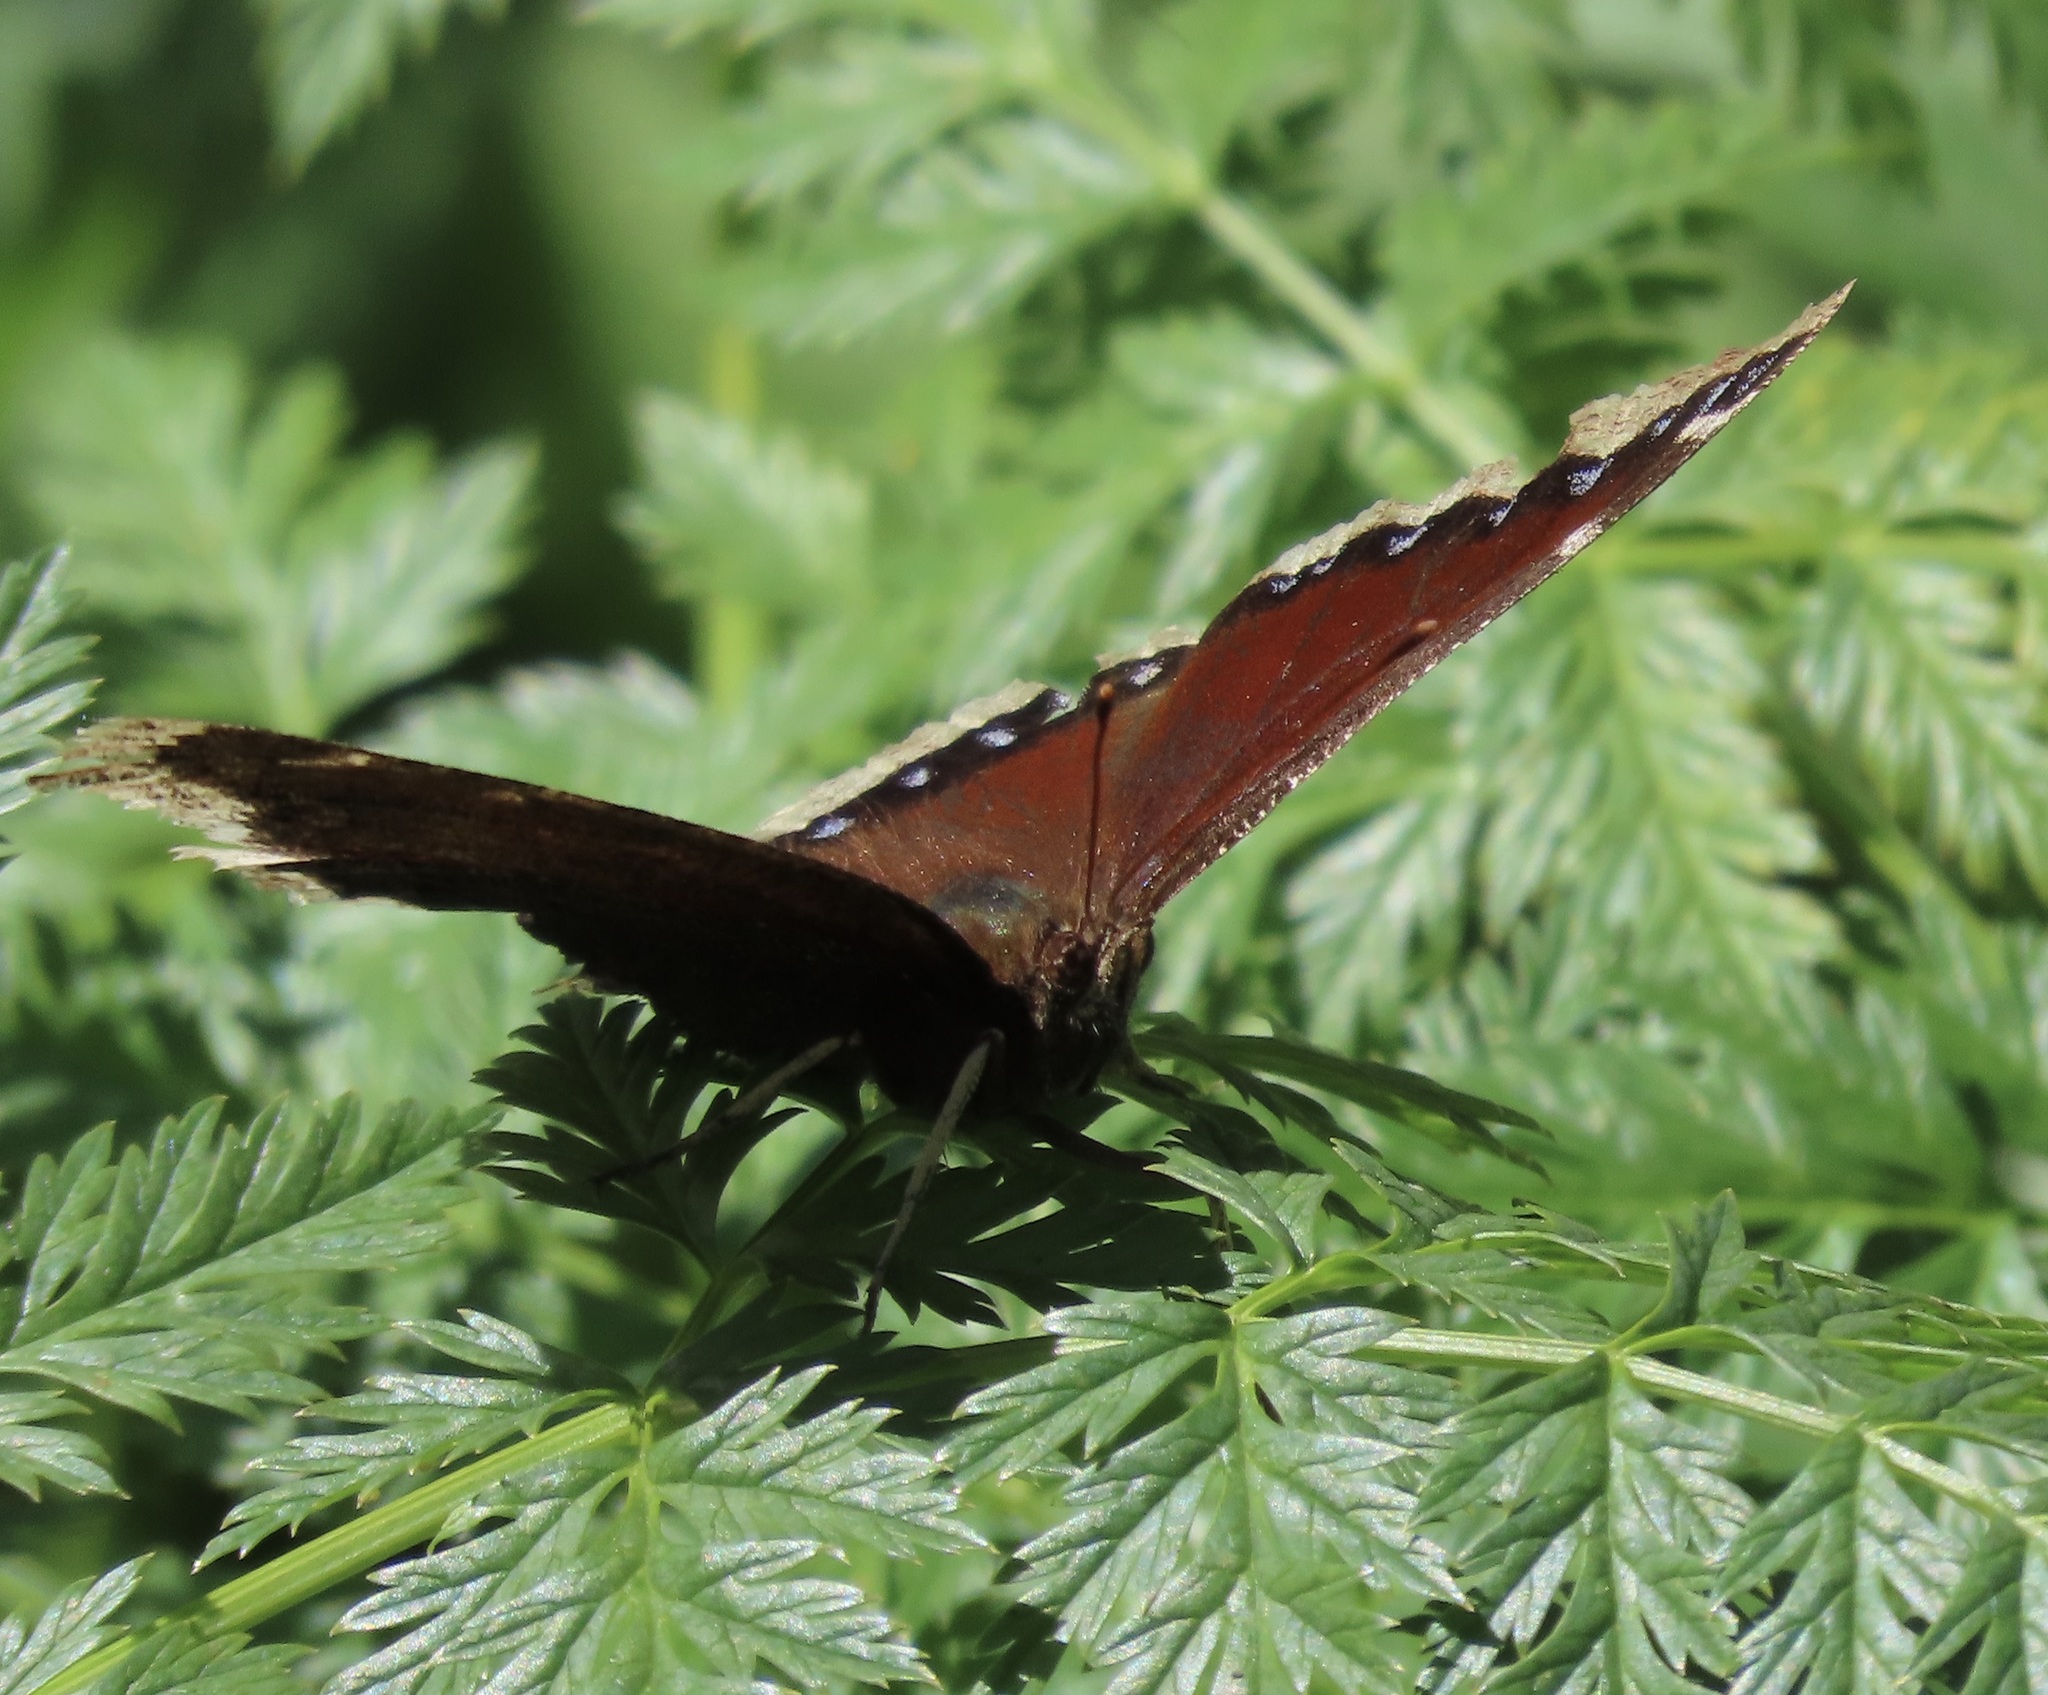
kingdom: Animalia
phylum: Arthropoda
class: Insecta
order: Lepidoptera
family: Nymphalidae
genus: Nymphalis
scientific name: Nymphalis antiopa
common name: Camberwell beauty
